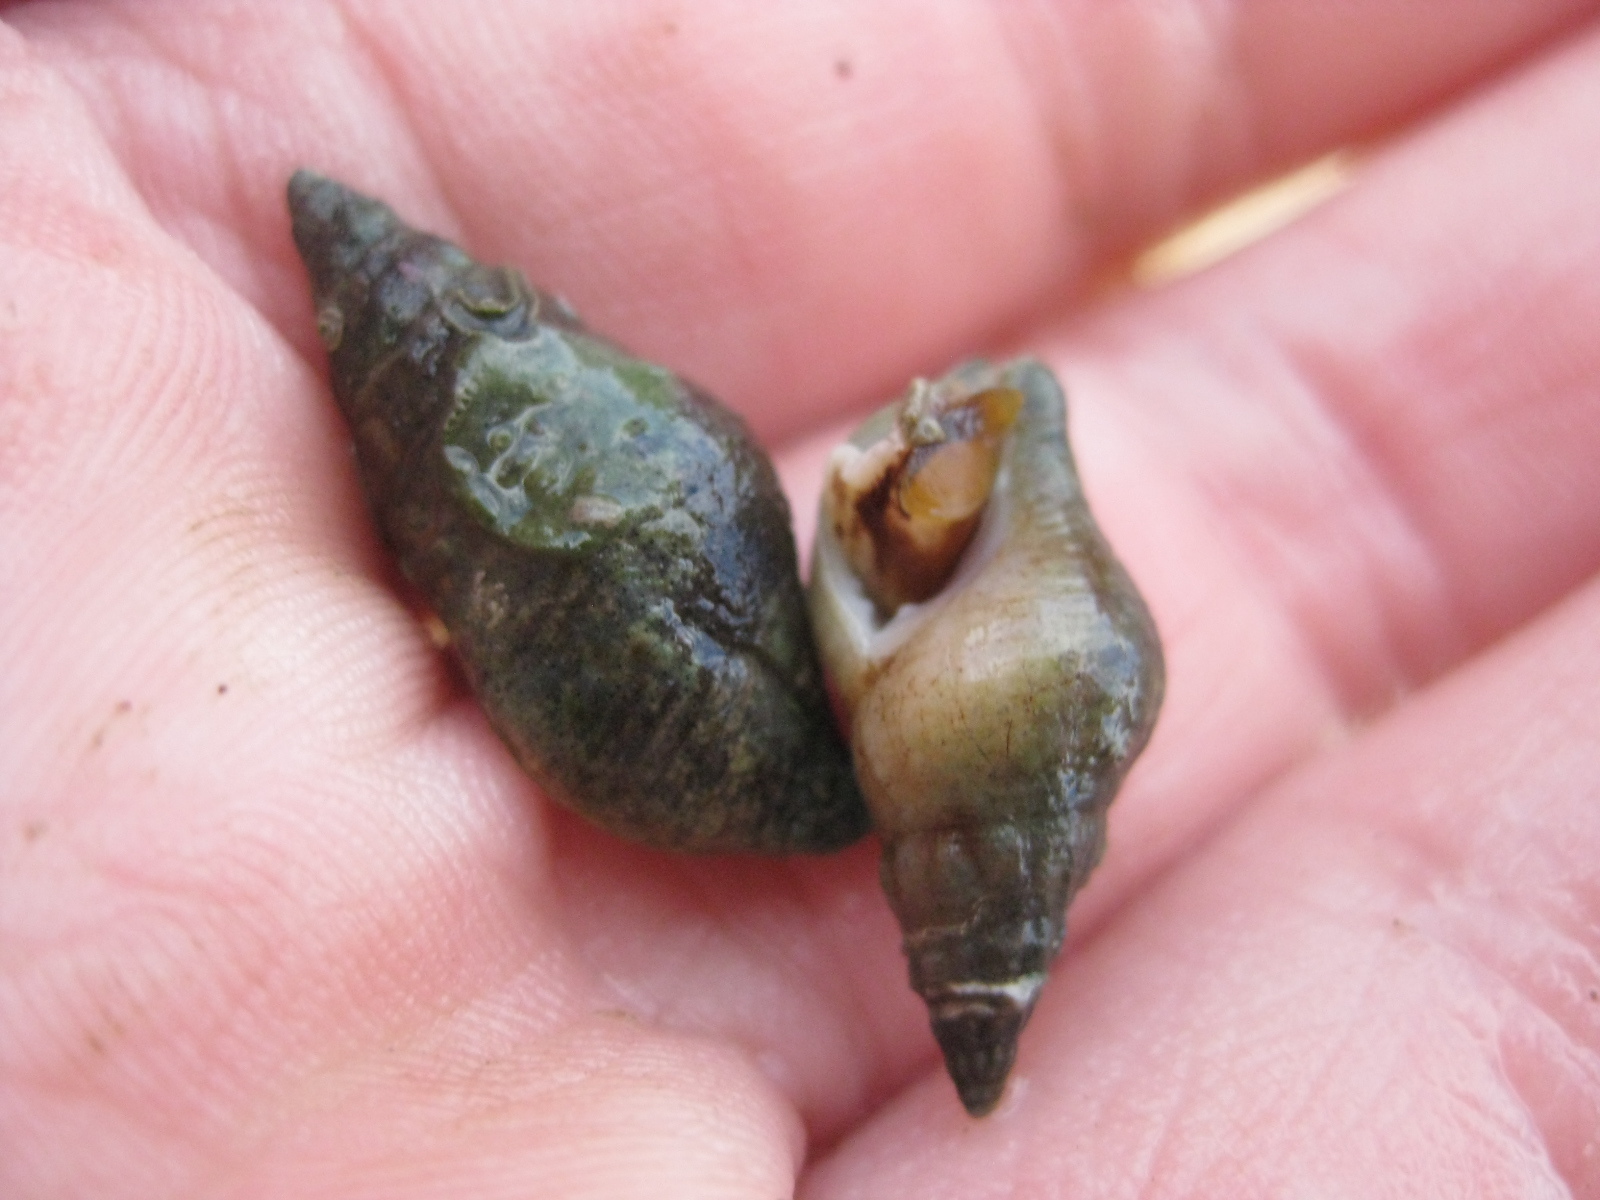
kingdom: Animalia
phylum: Mollusca
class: Gastropoda
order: Neogastropoda
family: Tudiclidae
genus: Buccinulum
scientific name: Buccinulum vittatum
